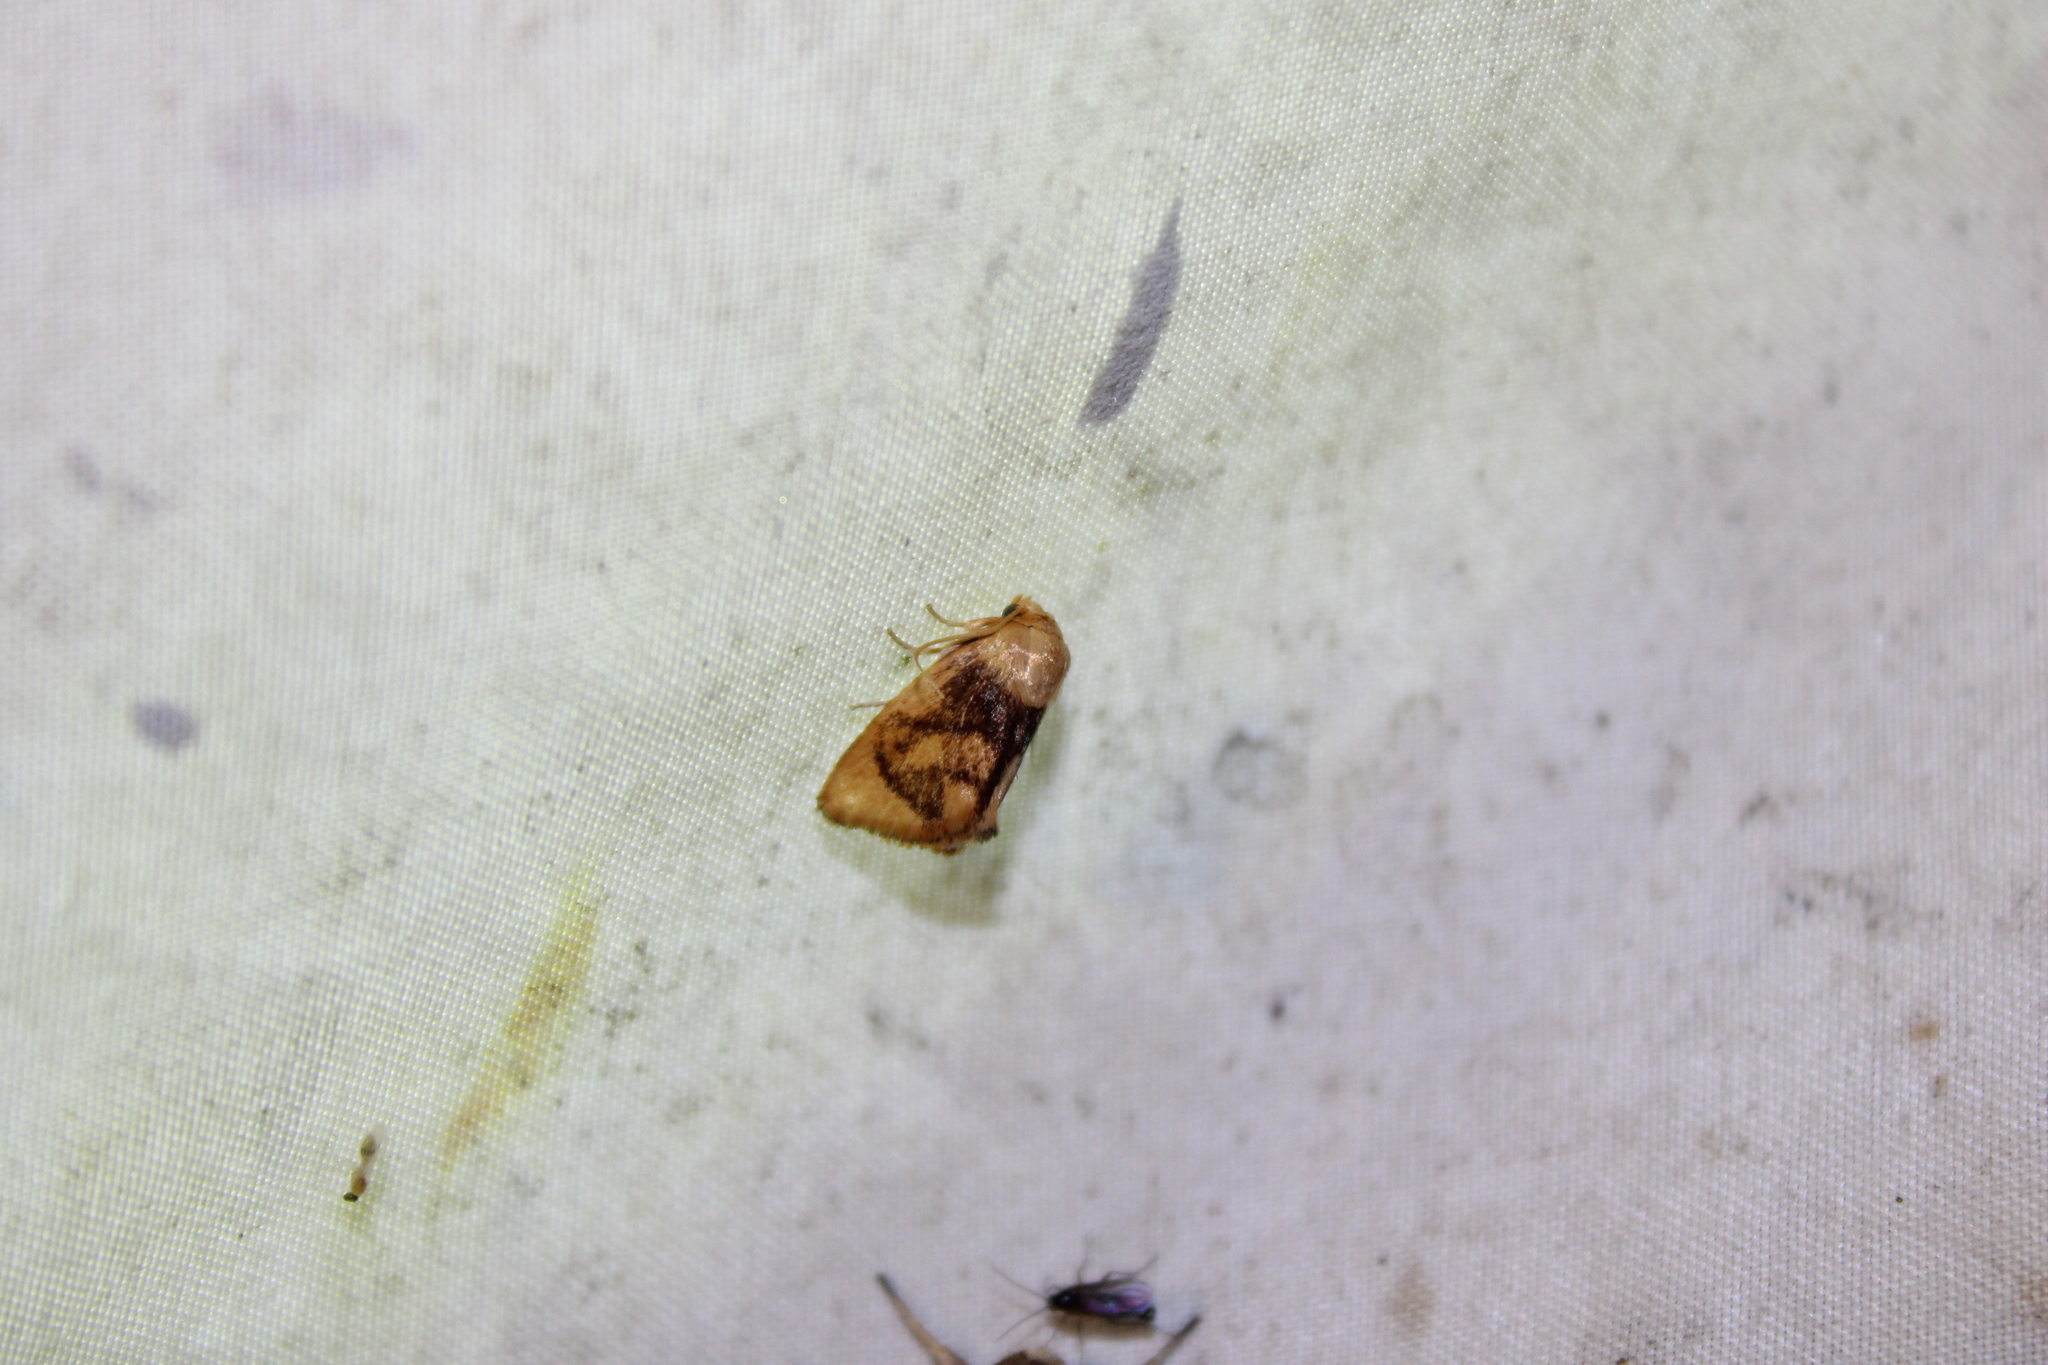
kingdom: Animalia
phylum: Arthropoda
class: Insecta
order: Lepidoptera
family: Limacodidae
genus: Tortricidia
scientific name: Tortricidia flexuosa
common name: Abbreviated button slug moth
